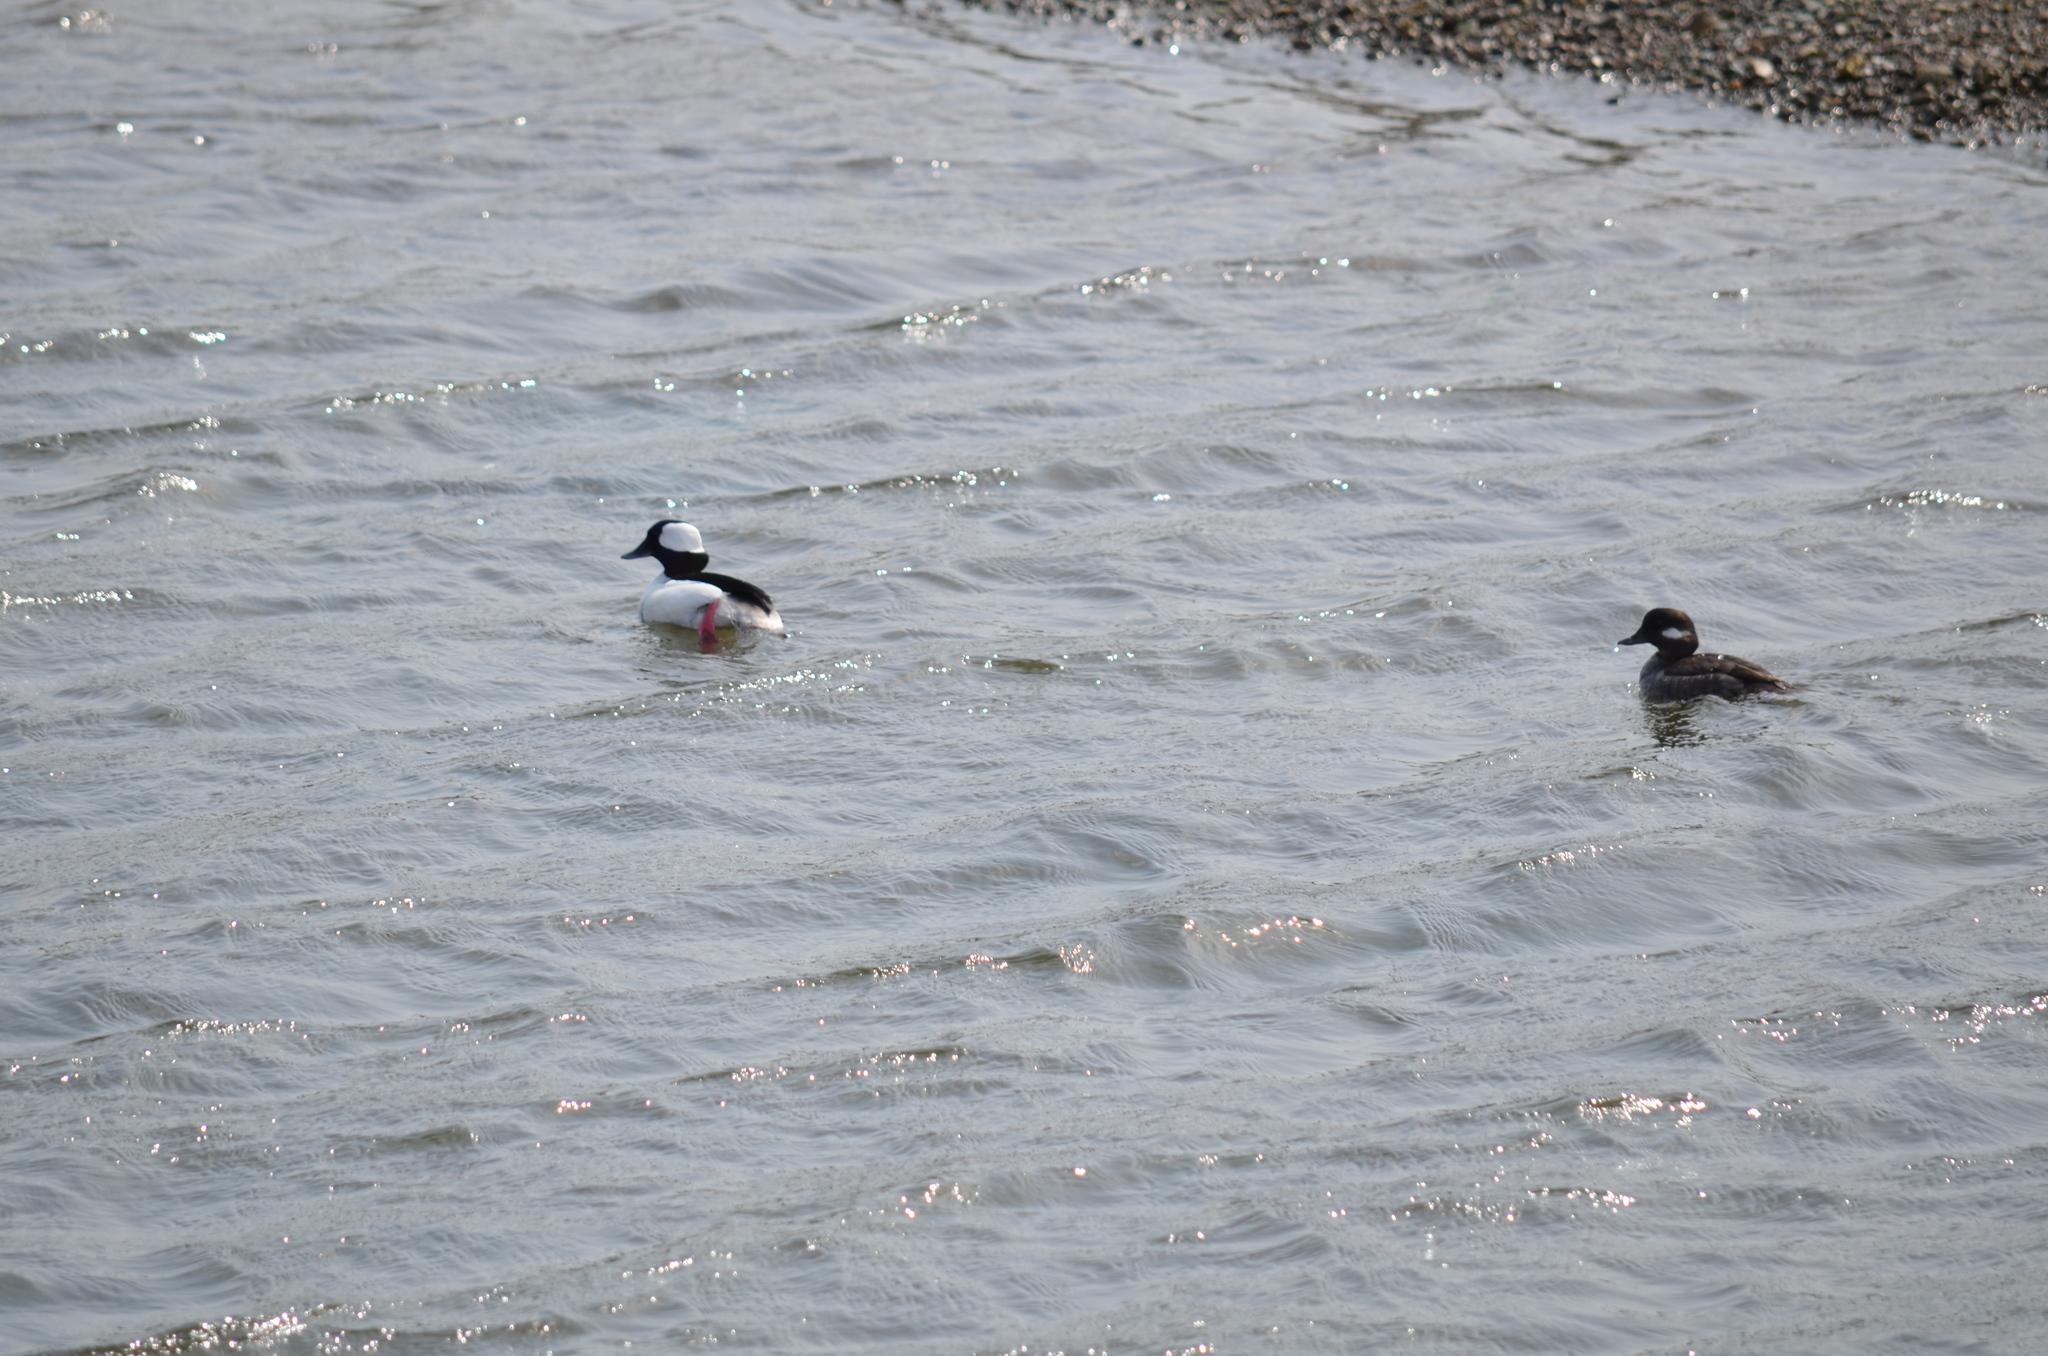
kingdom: Animalia
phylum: Chordata
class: Aves
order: Anseriformes
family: Anatidae
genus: Bucephala
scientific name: Bucephala albeola
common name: Bufflehead
